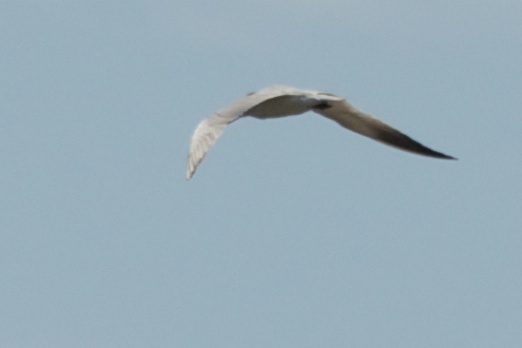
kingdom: Animalia
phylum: Chordata
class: Aves
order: Charadriiformes
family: Laridae
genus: Hydroprogne
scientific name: Hydroprogne caspia
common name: Caspian tern
